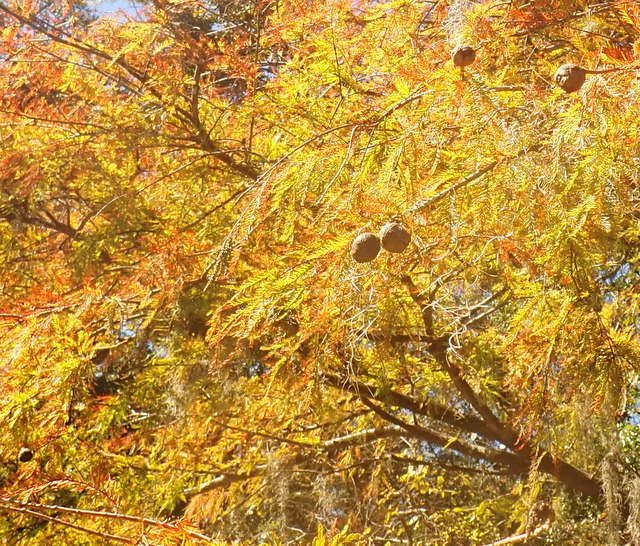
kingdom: Plantae
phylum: Tracheophyta
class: Pinopsida
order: Pinales
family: Cupressaceae
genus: Taxodium
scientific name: Taxodium distichum
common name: Bald cypress
